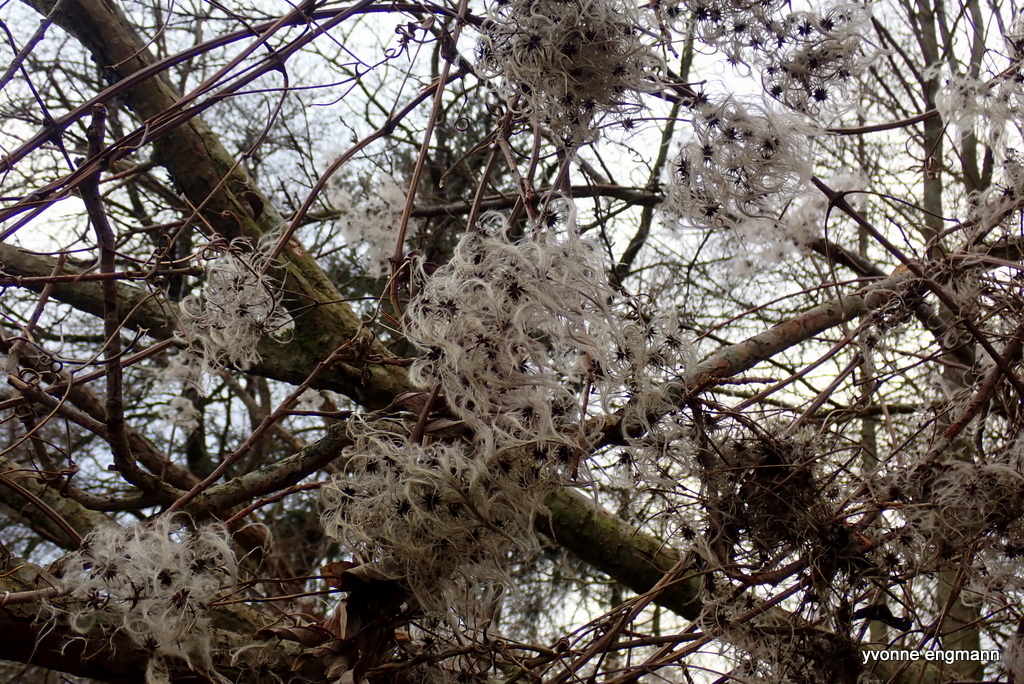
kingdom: Plantae
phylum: Tracheophyta
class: Magnoliopsida
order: Ranunculales
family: Ranunculaceae
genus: Clematis
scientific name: Clematis vitalba
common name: Evergreen clematis
